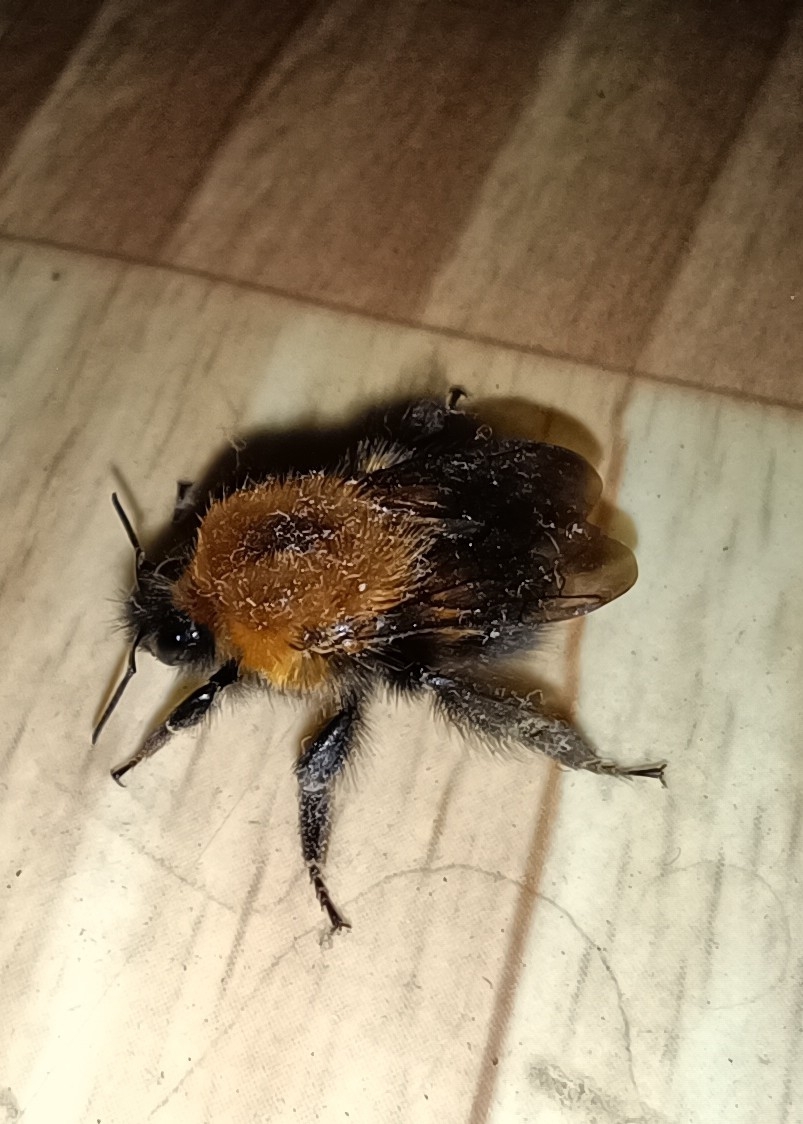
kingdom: Animalia
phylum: Arthropoda
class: Insecta
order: Hymenoptera
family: Apidae
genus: Bombus
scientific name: Bombus hypnorum
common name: New garden bumblebee
